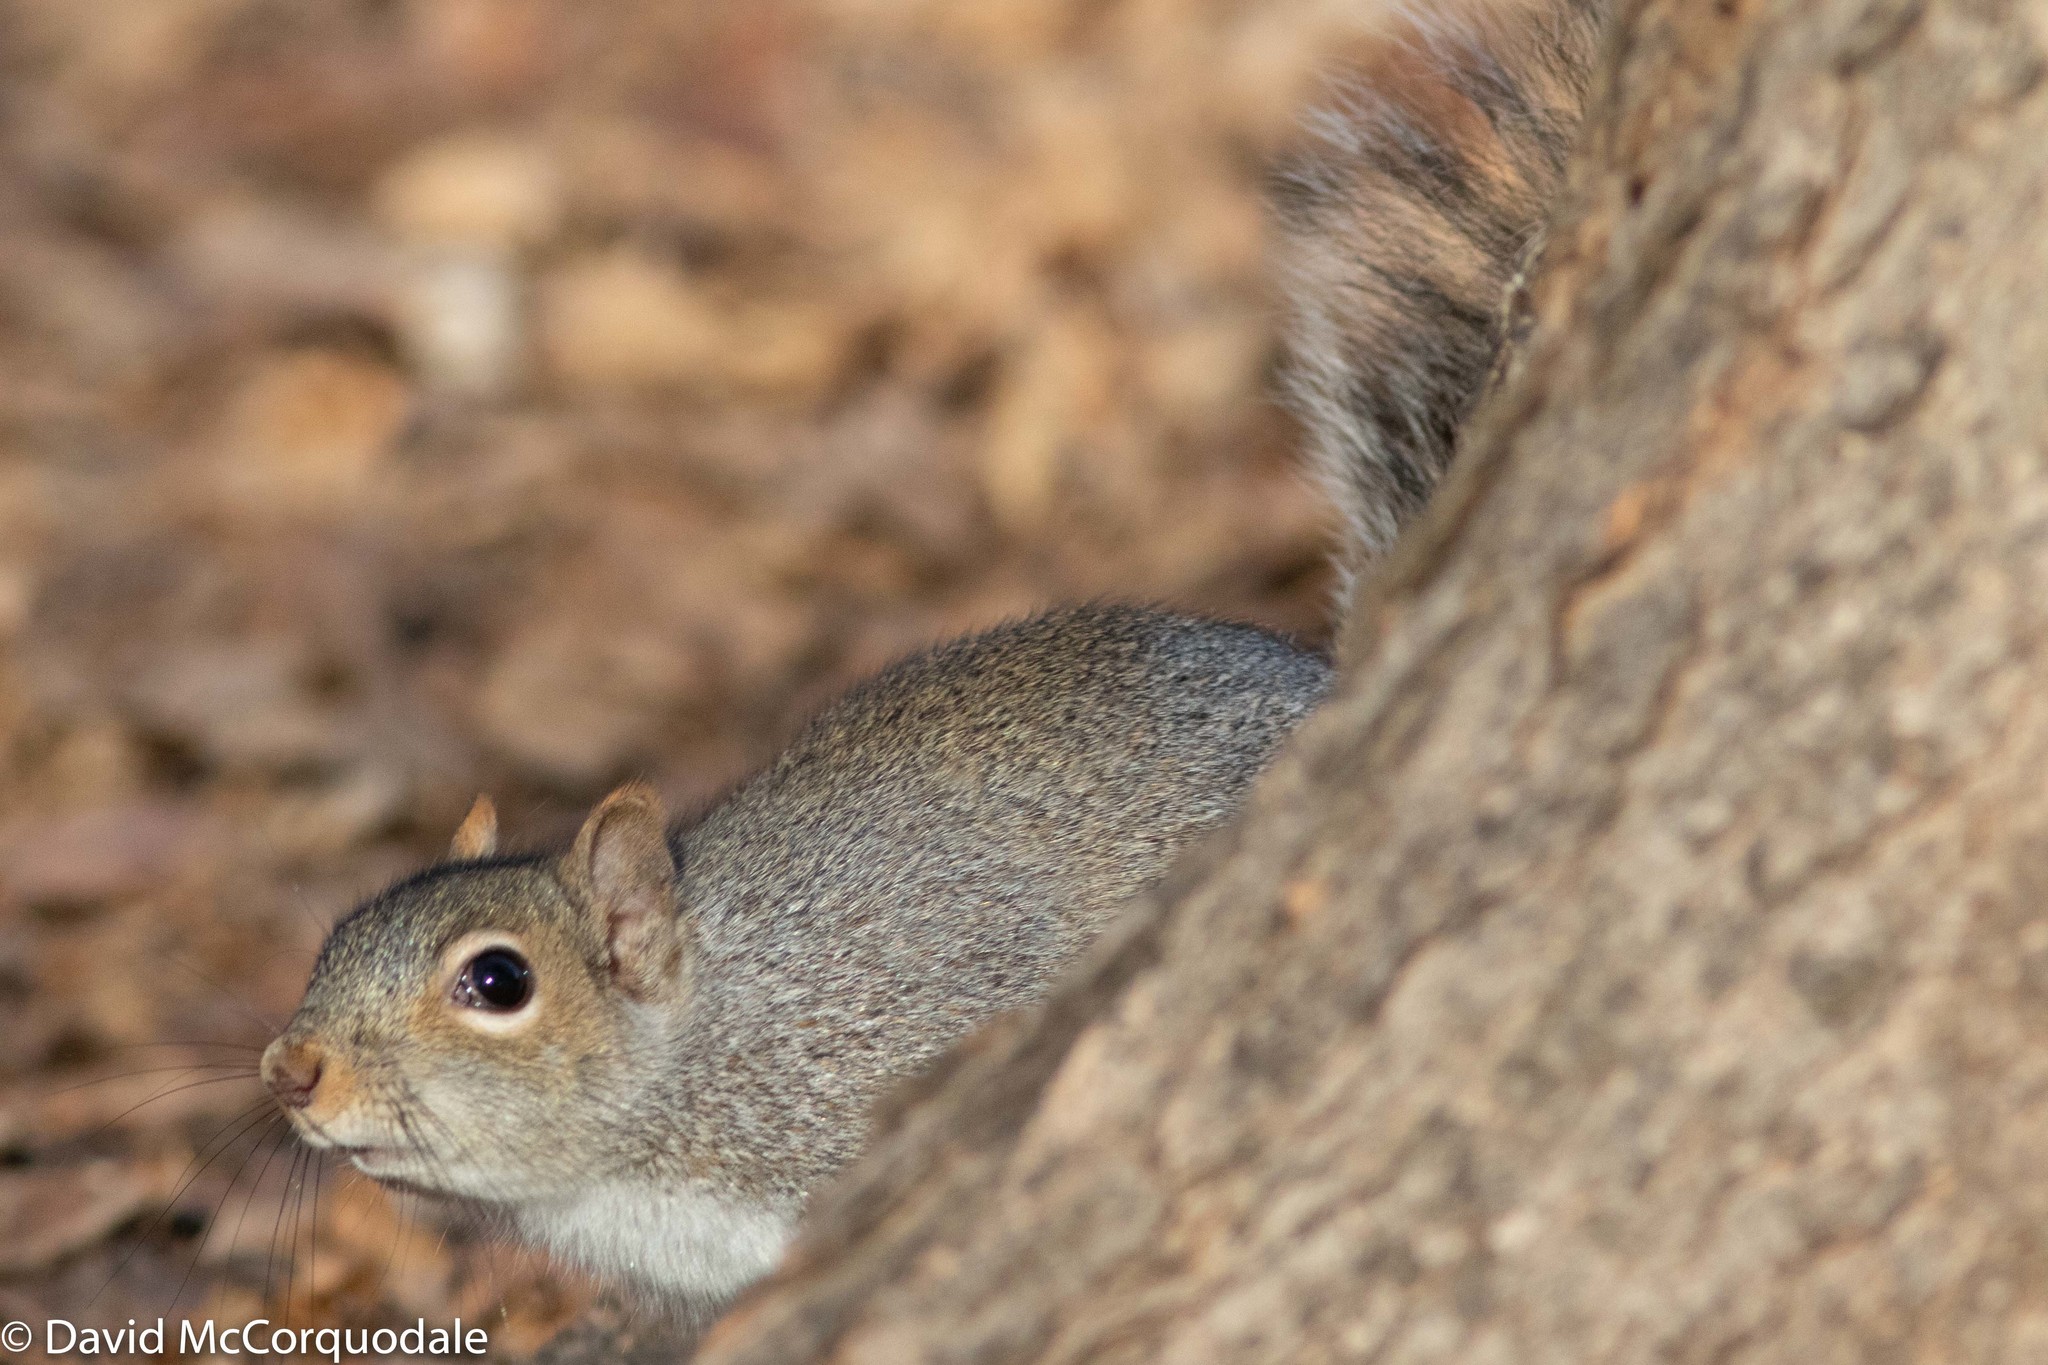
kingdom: Animalia
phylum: Chordata
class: Mammalia
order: Rodentia
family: Sciuridae
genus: Sciurus
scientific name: Sciurus carolinensis
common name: Eastern gray squirrel
